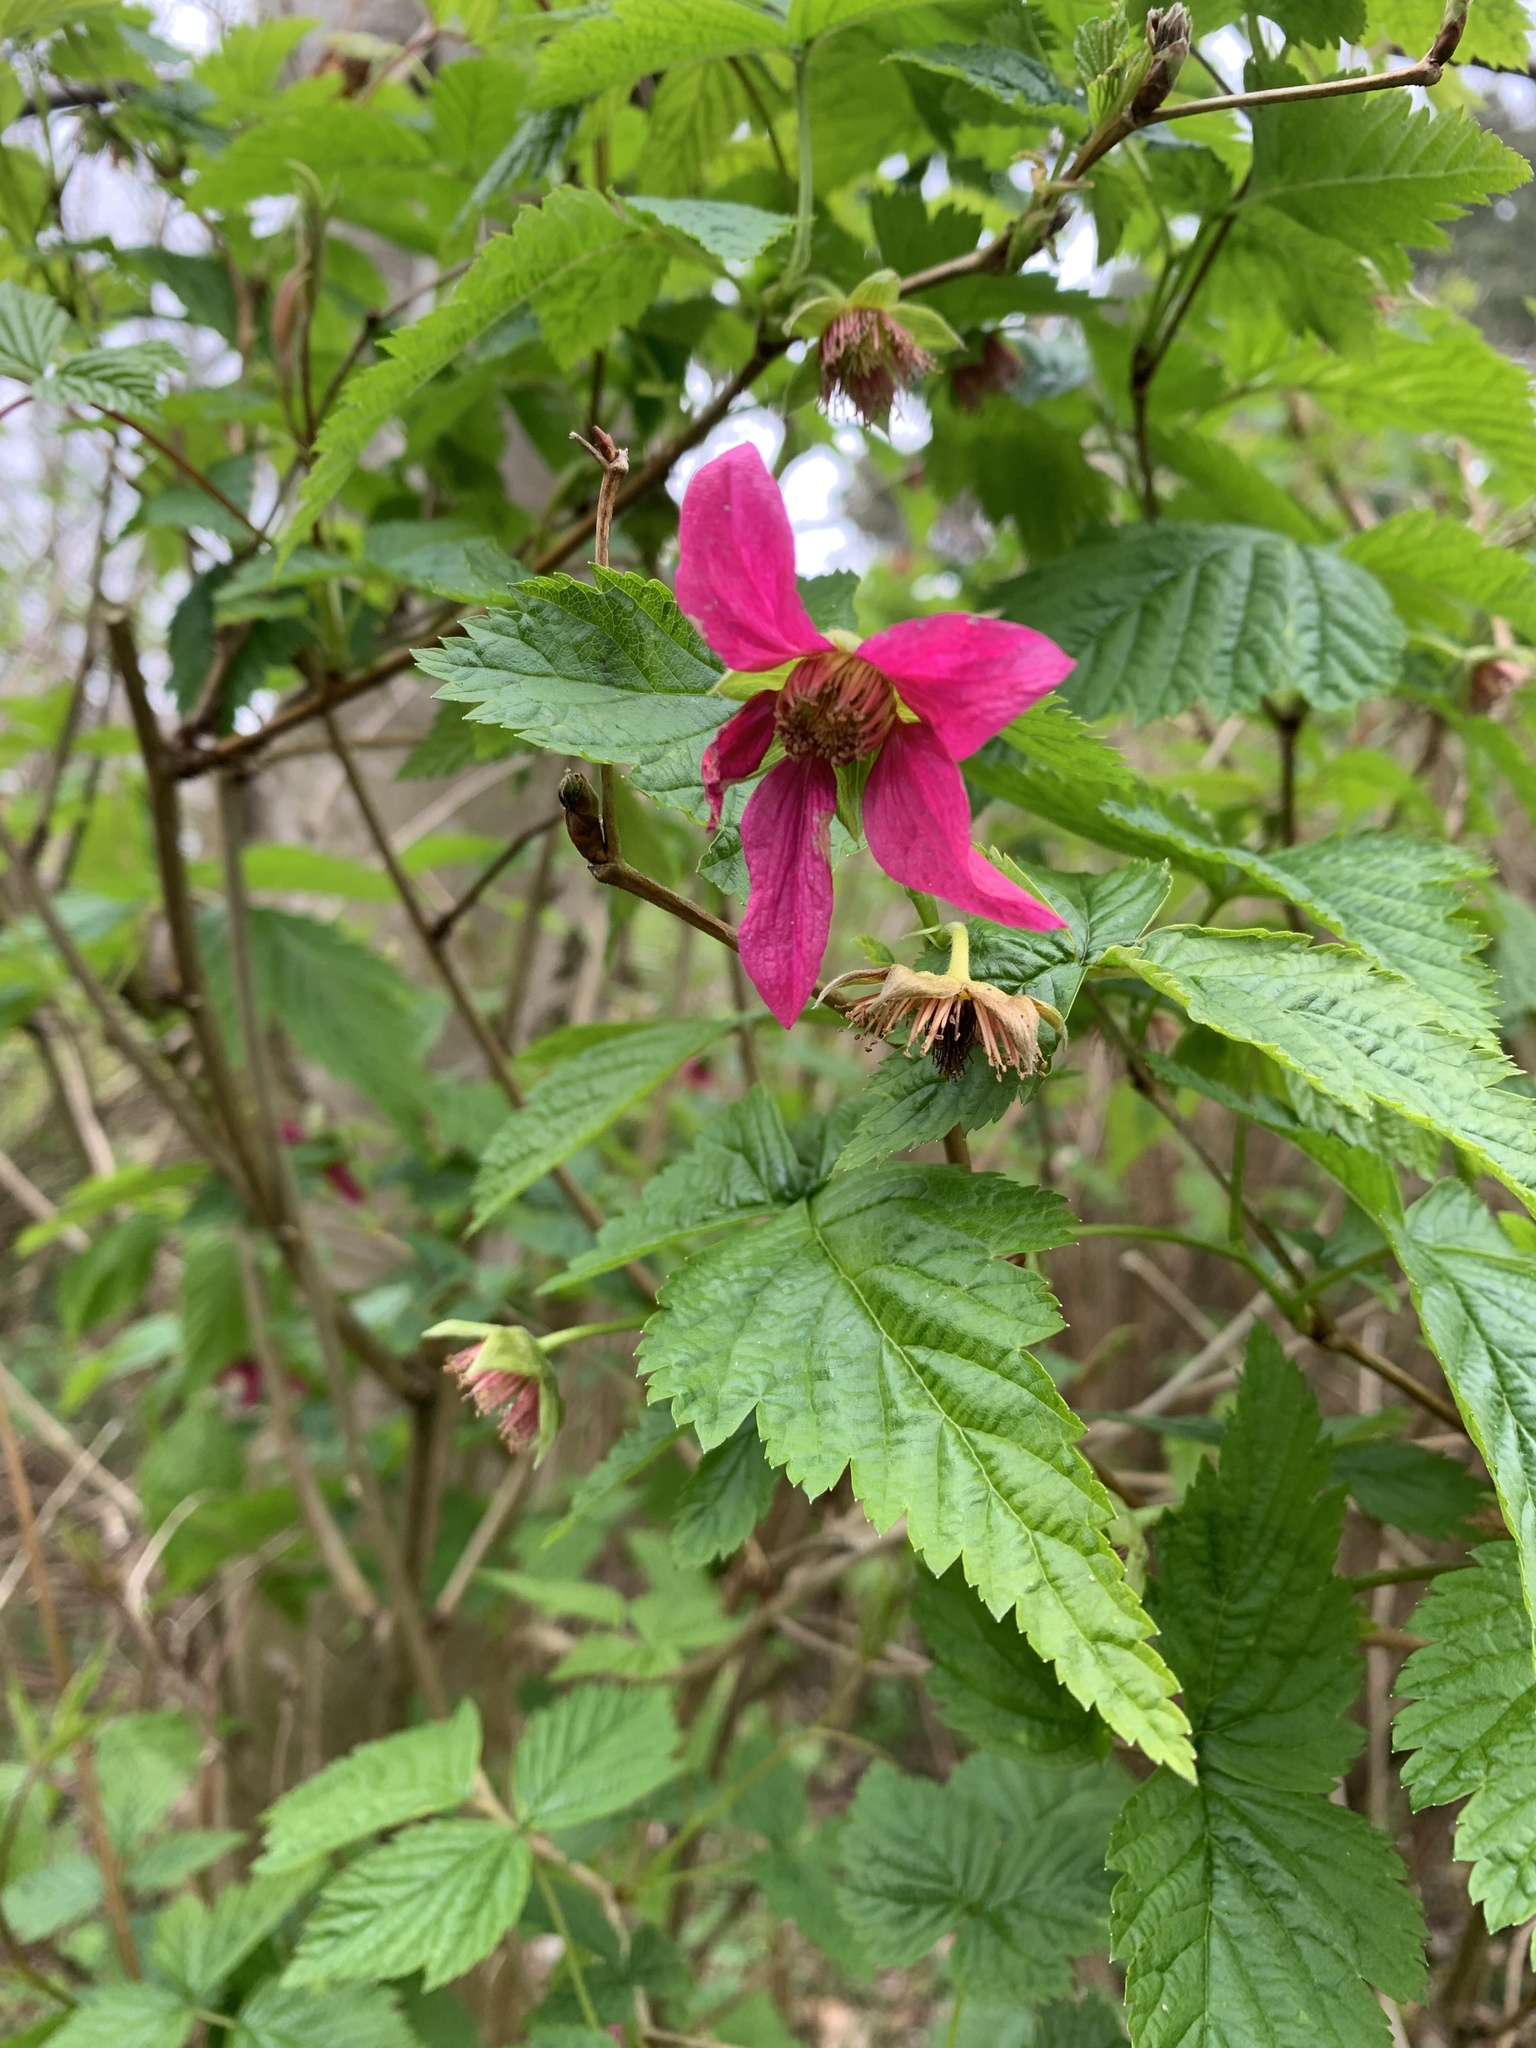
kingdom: Plantae
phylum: Tracheophyta
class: Magnoliopsida
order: Rosales
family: Rosaceae
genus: Rubus
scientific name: Rubus spectabilis
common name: Salmonberry
